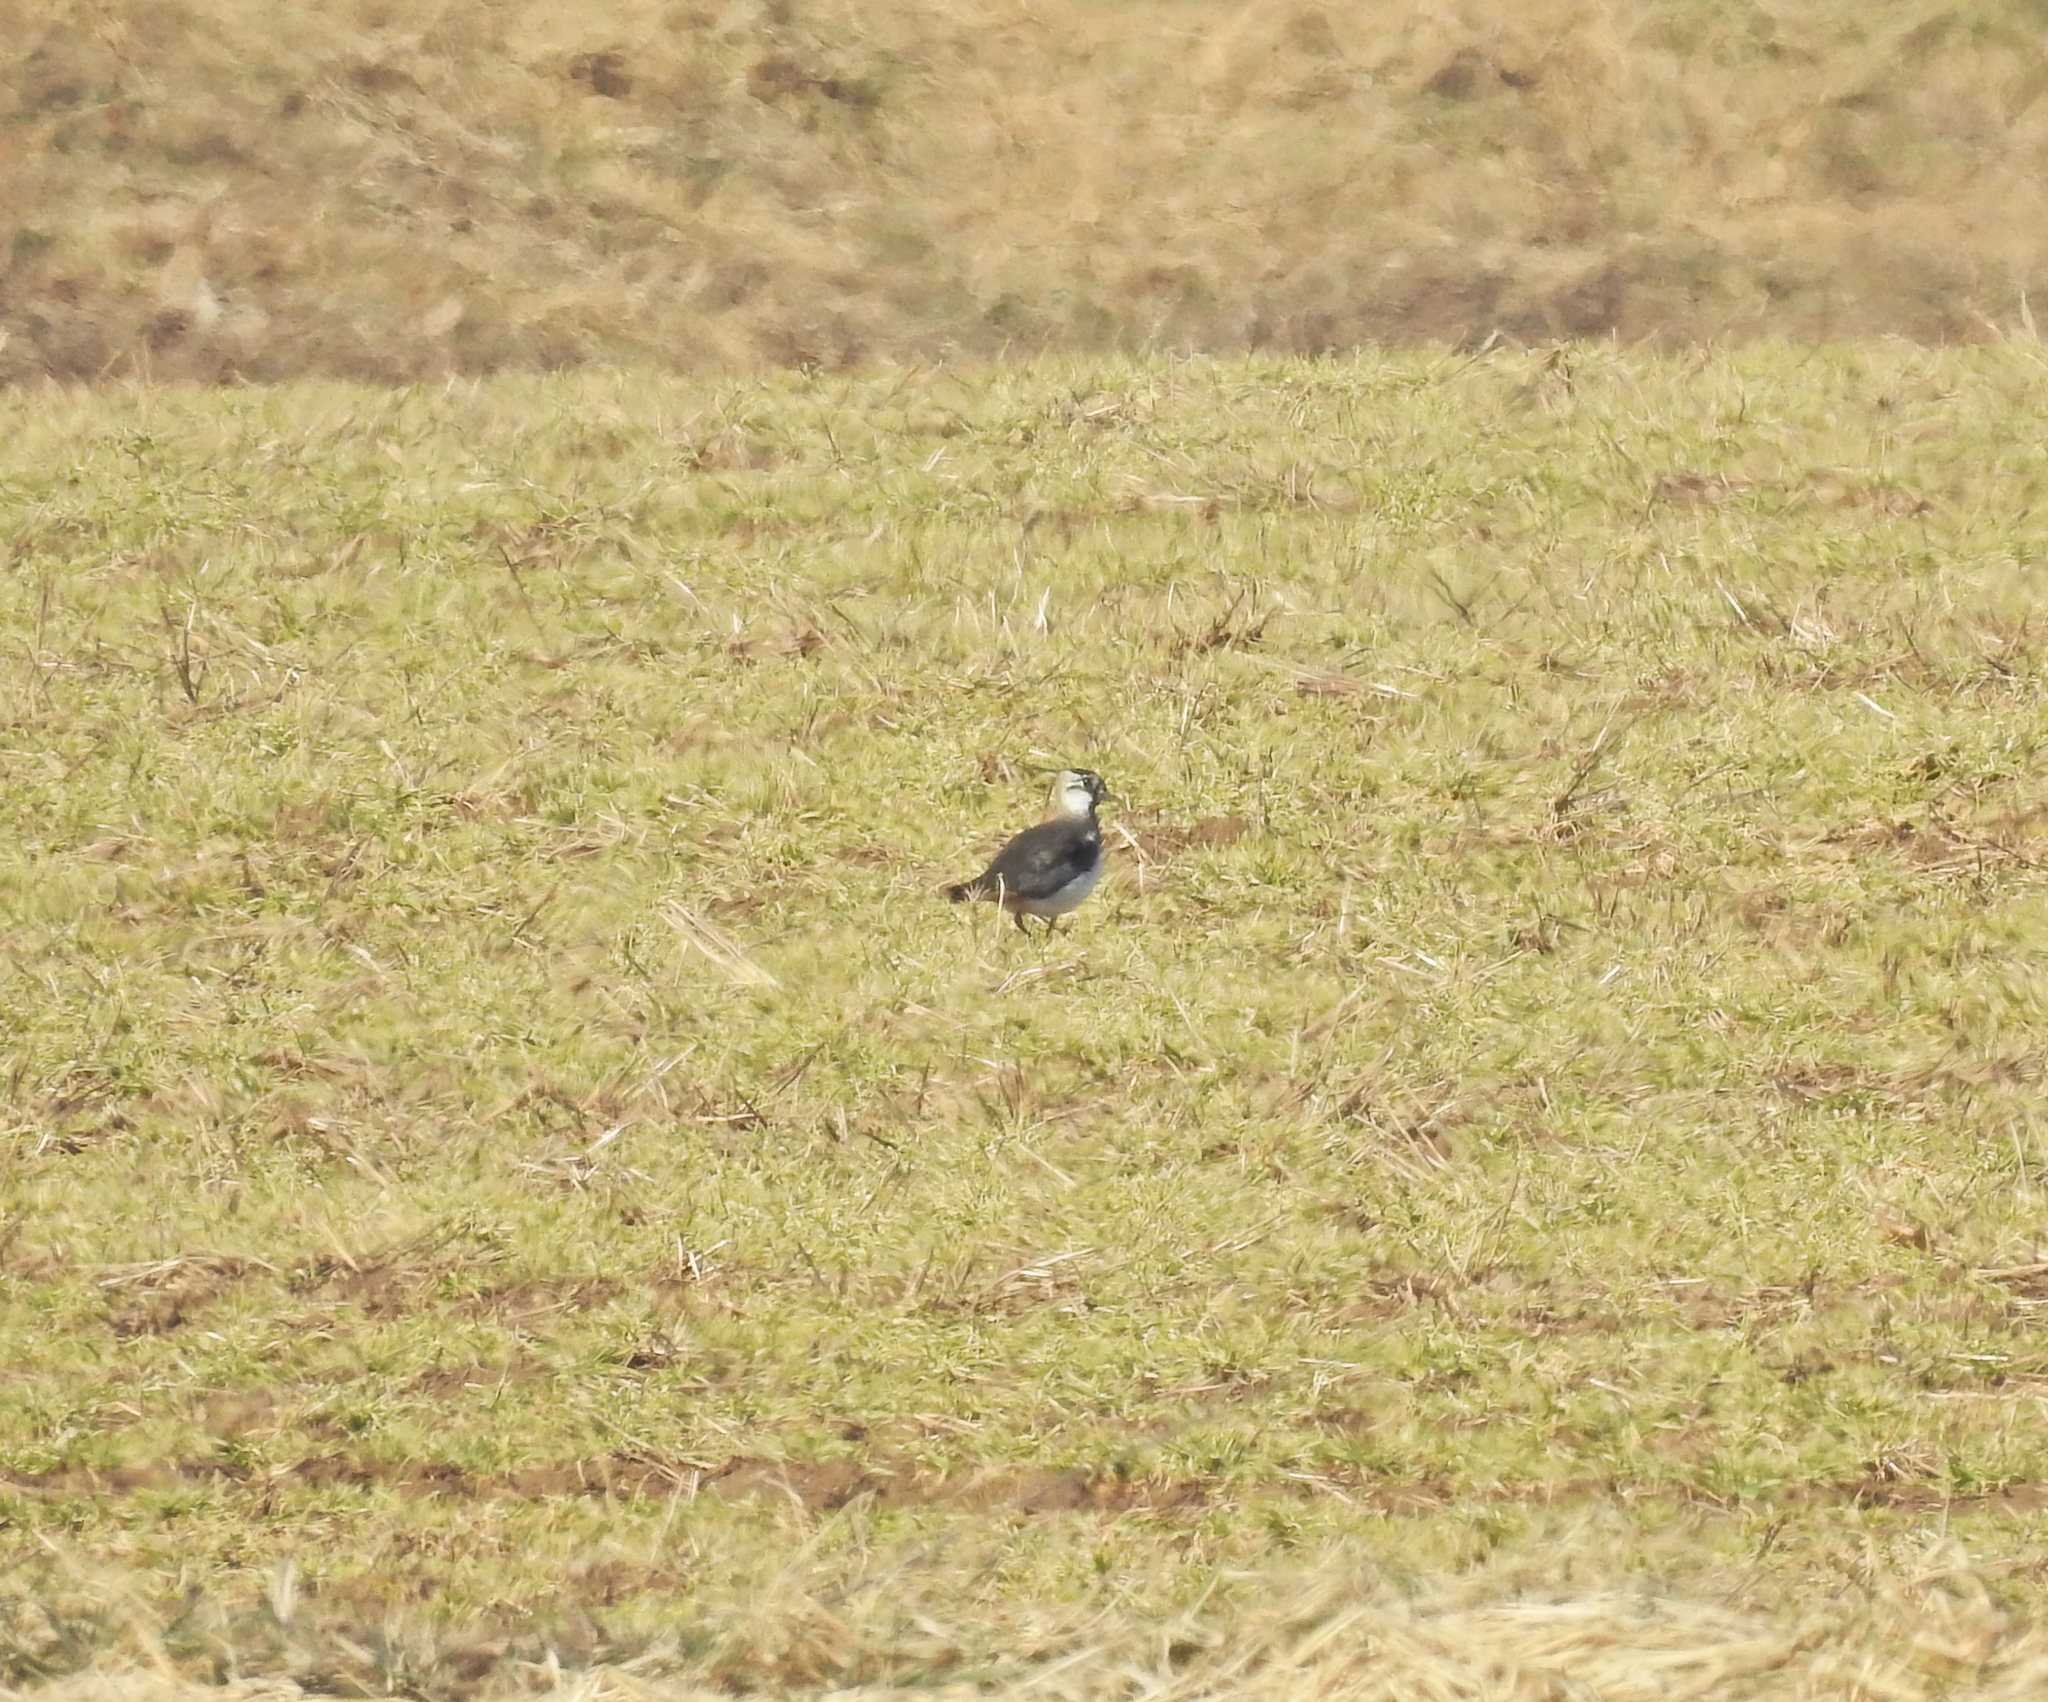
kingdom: Animalia
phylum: Chordata
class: Aves
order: Charadriiformes
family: Charadriidae
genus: Vanellus
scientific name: Vanellus vanellus
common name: Northern lapwing
